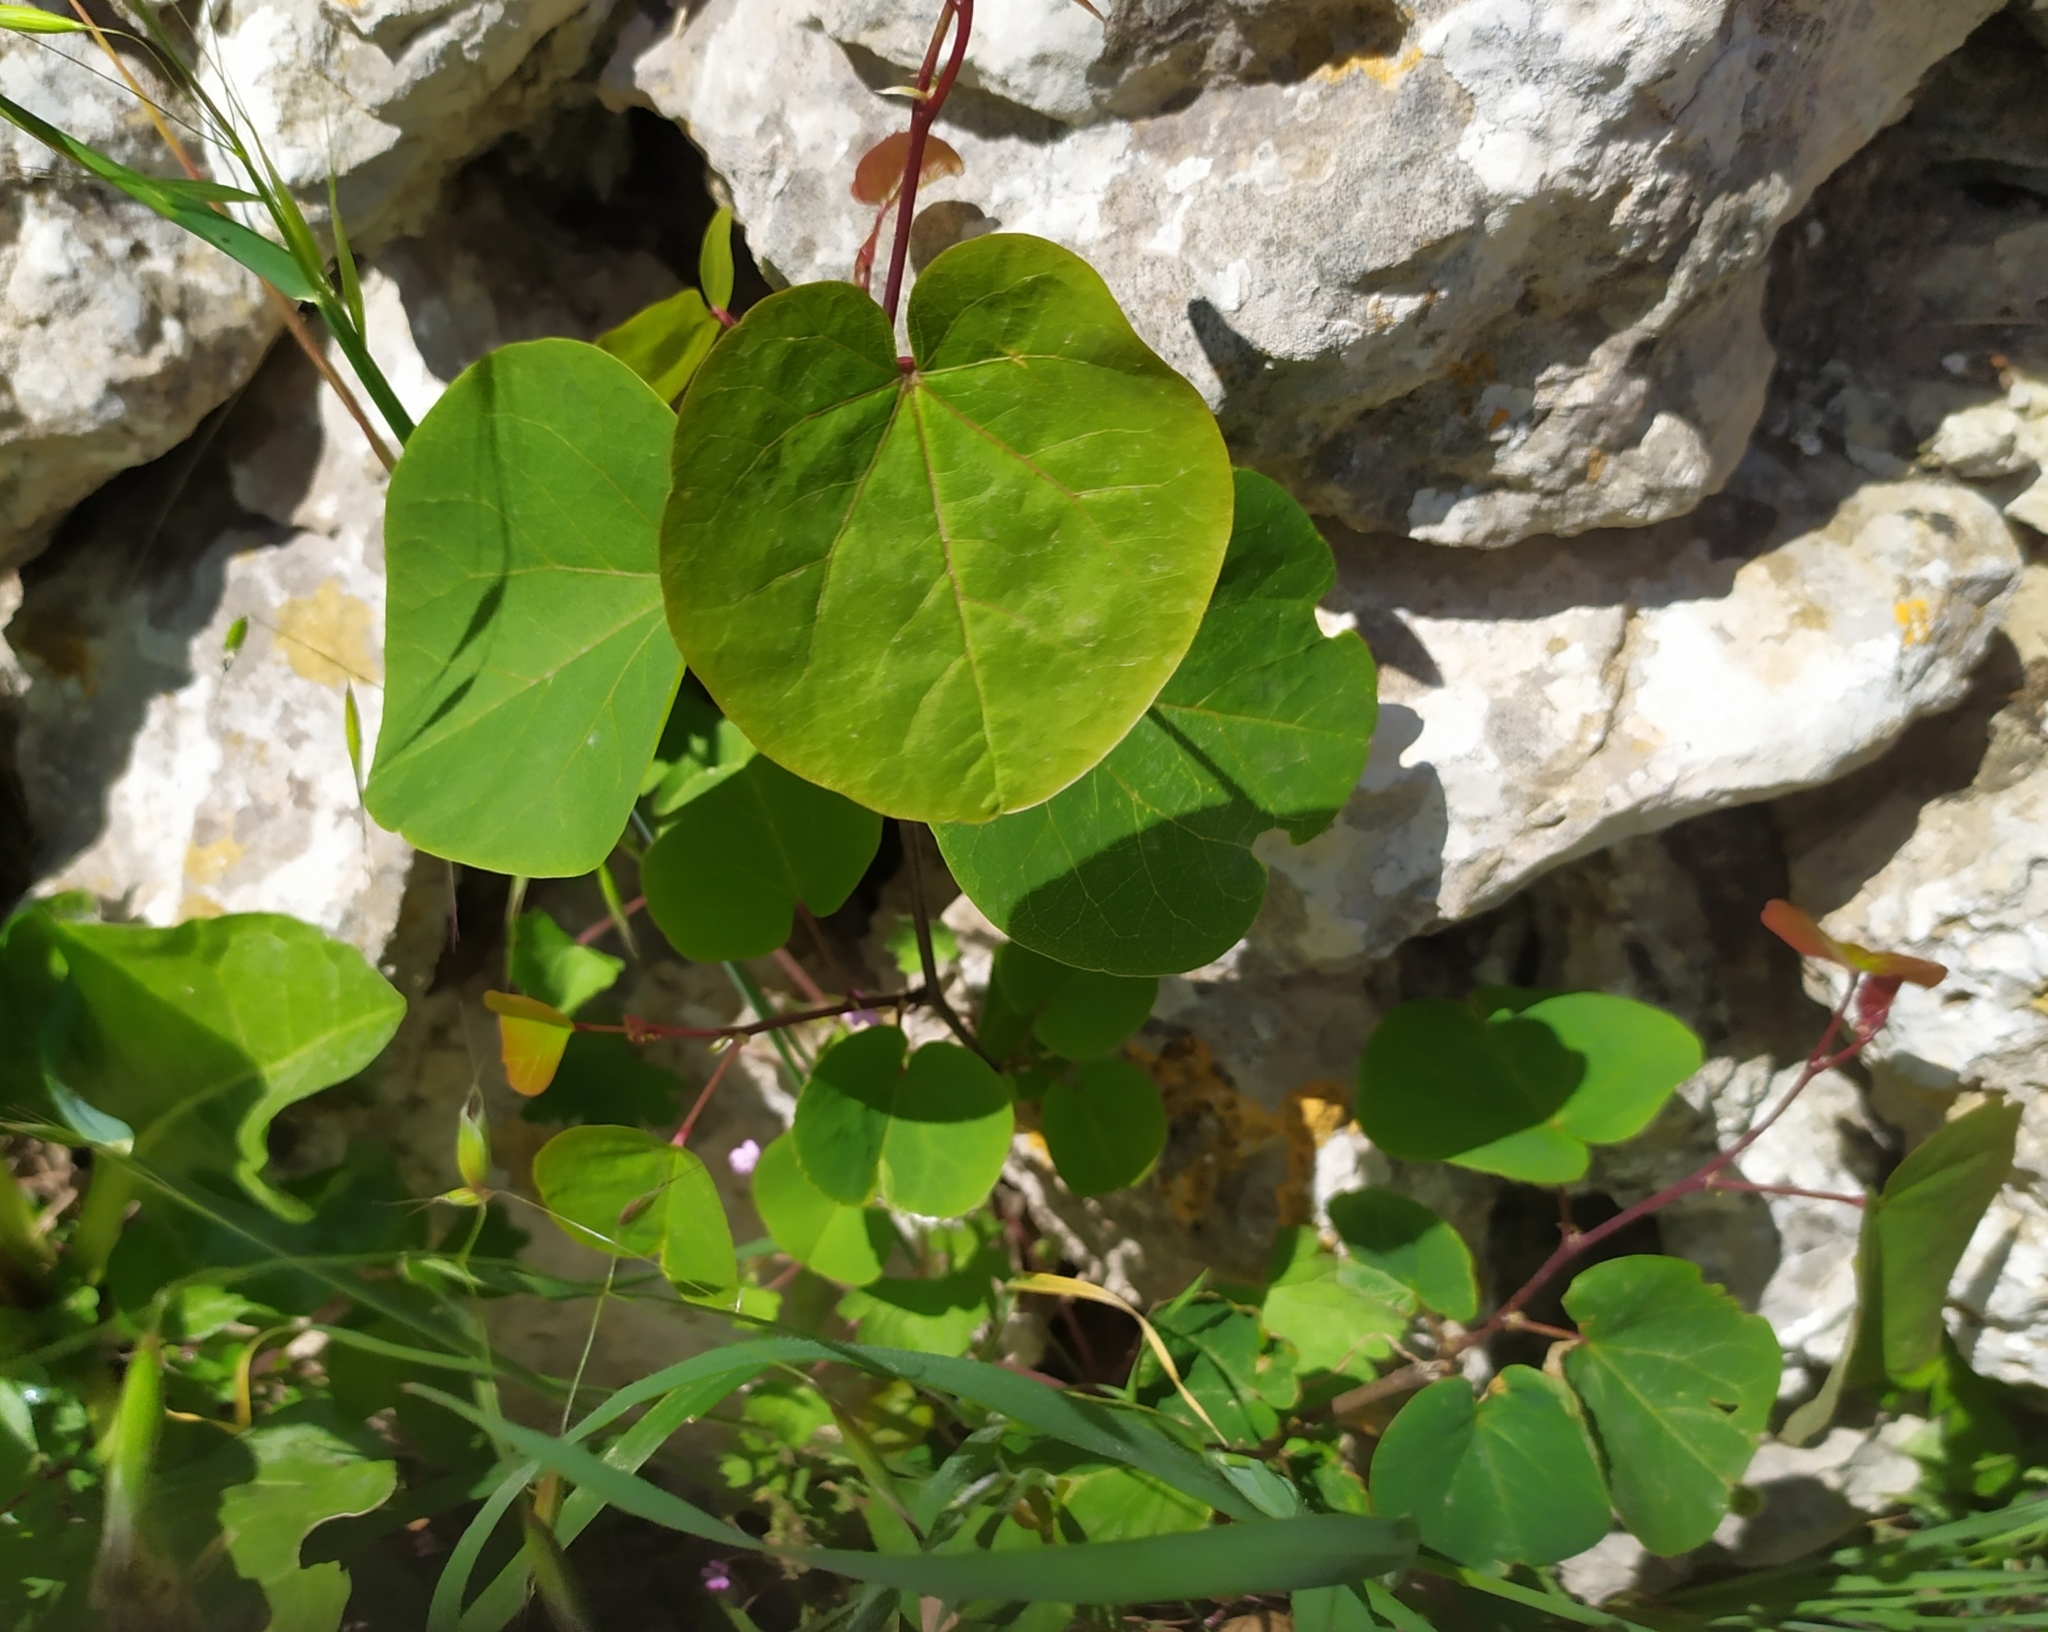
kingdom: Plantae
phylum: Tracheophyta
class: Magnoliopsida
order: Fabales
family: Fabaceae
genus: Cercis
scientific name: Cercis siliquastrum
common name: Judas tree
